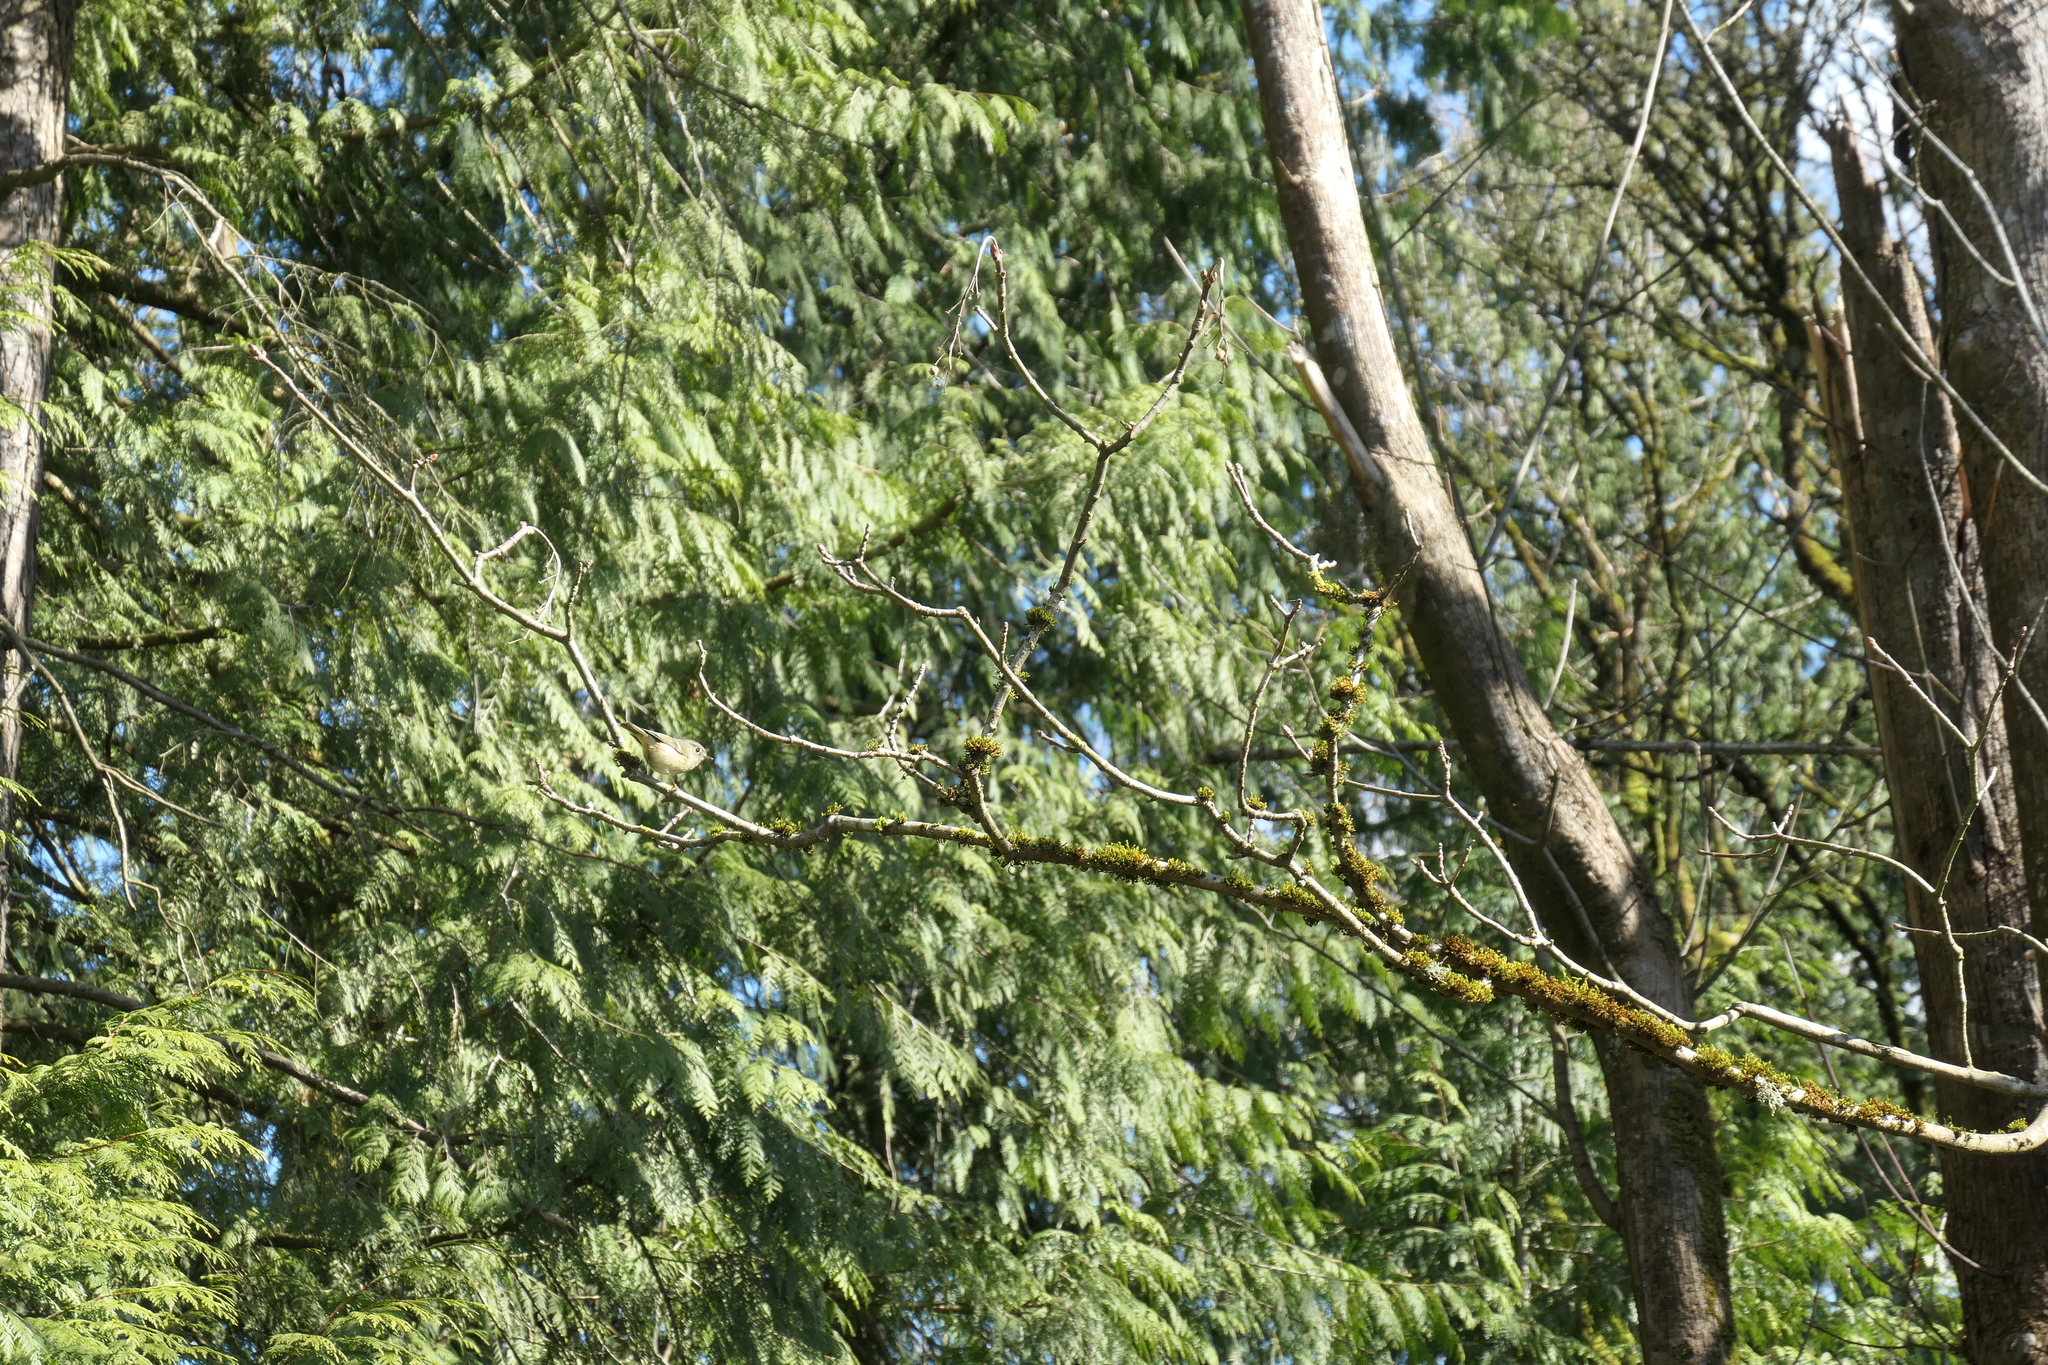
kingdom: Animalia
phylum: Chordata
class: Aves
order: Passeriformes
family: Regulidae
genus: Regulus
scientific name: Regulus calendula
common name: Ruby-crowned kinglet
